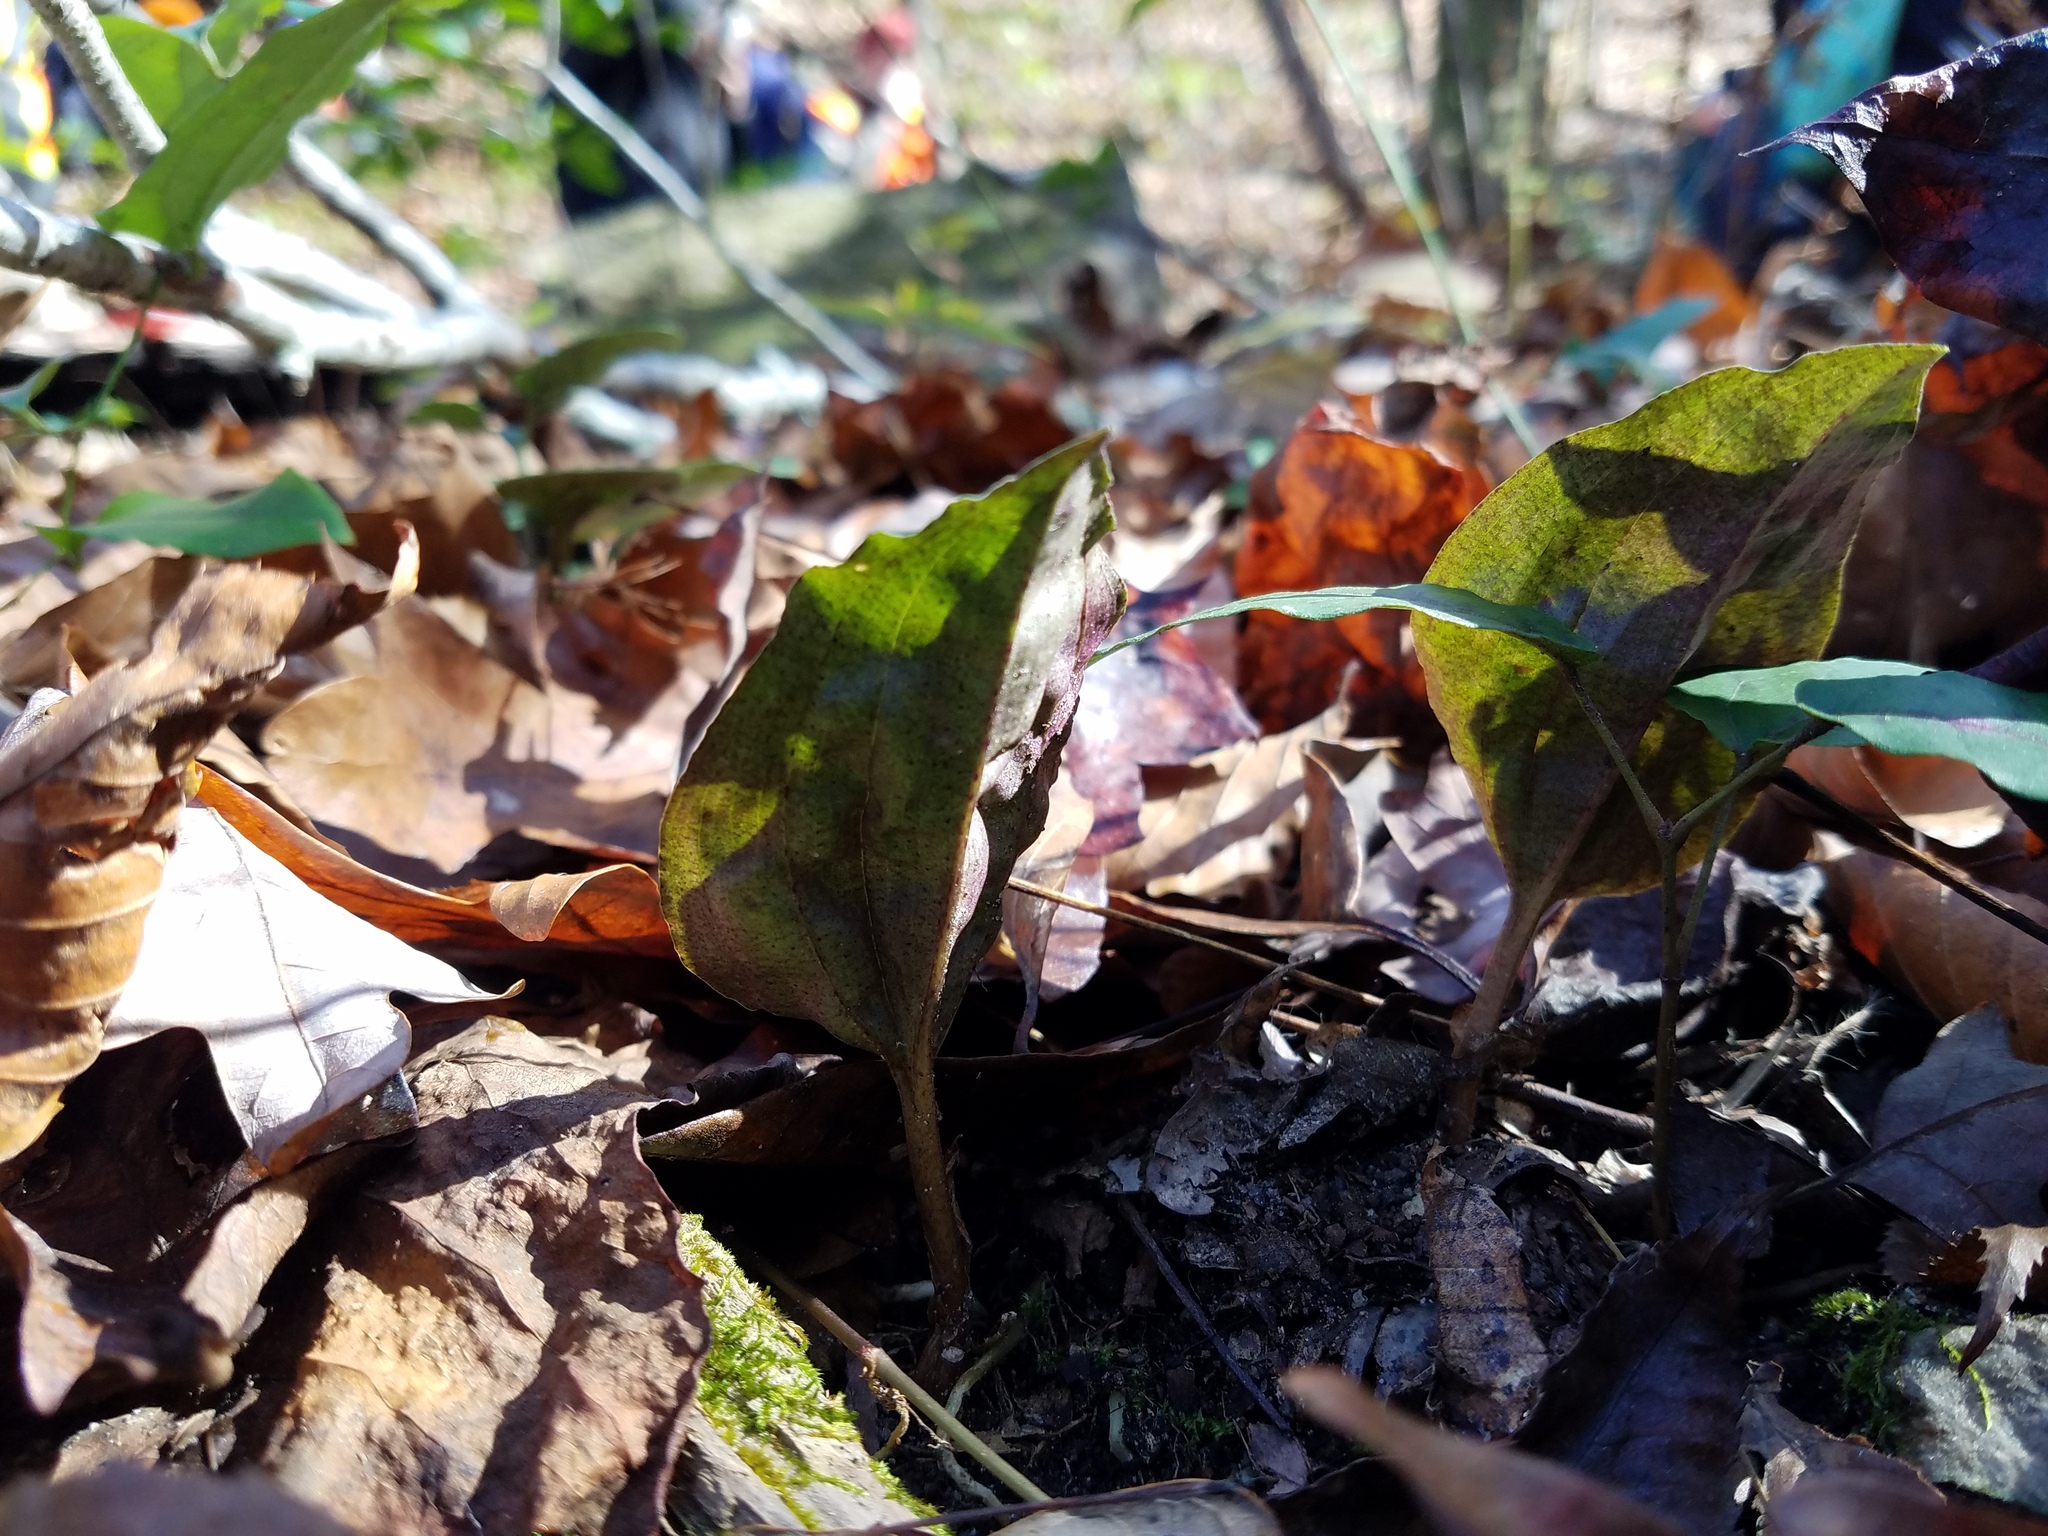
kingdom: Plantae
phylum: Tracheophyta
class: Liliopsida
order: Asparagales
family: Orchidaceae
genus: Tipularia
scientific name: Tipularia discolor
